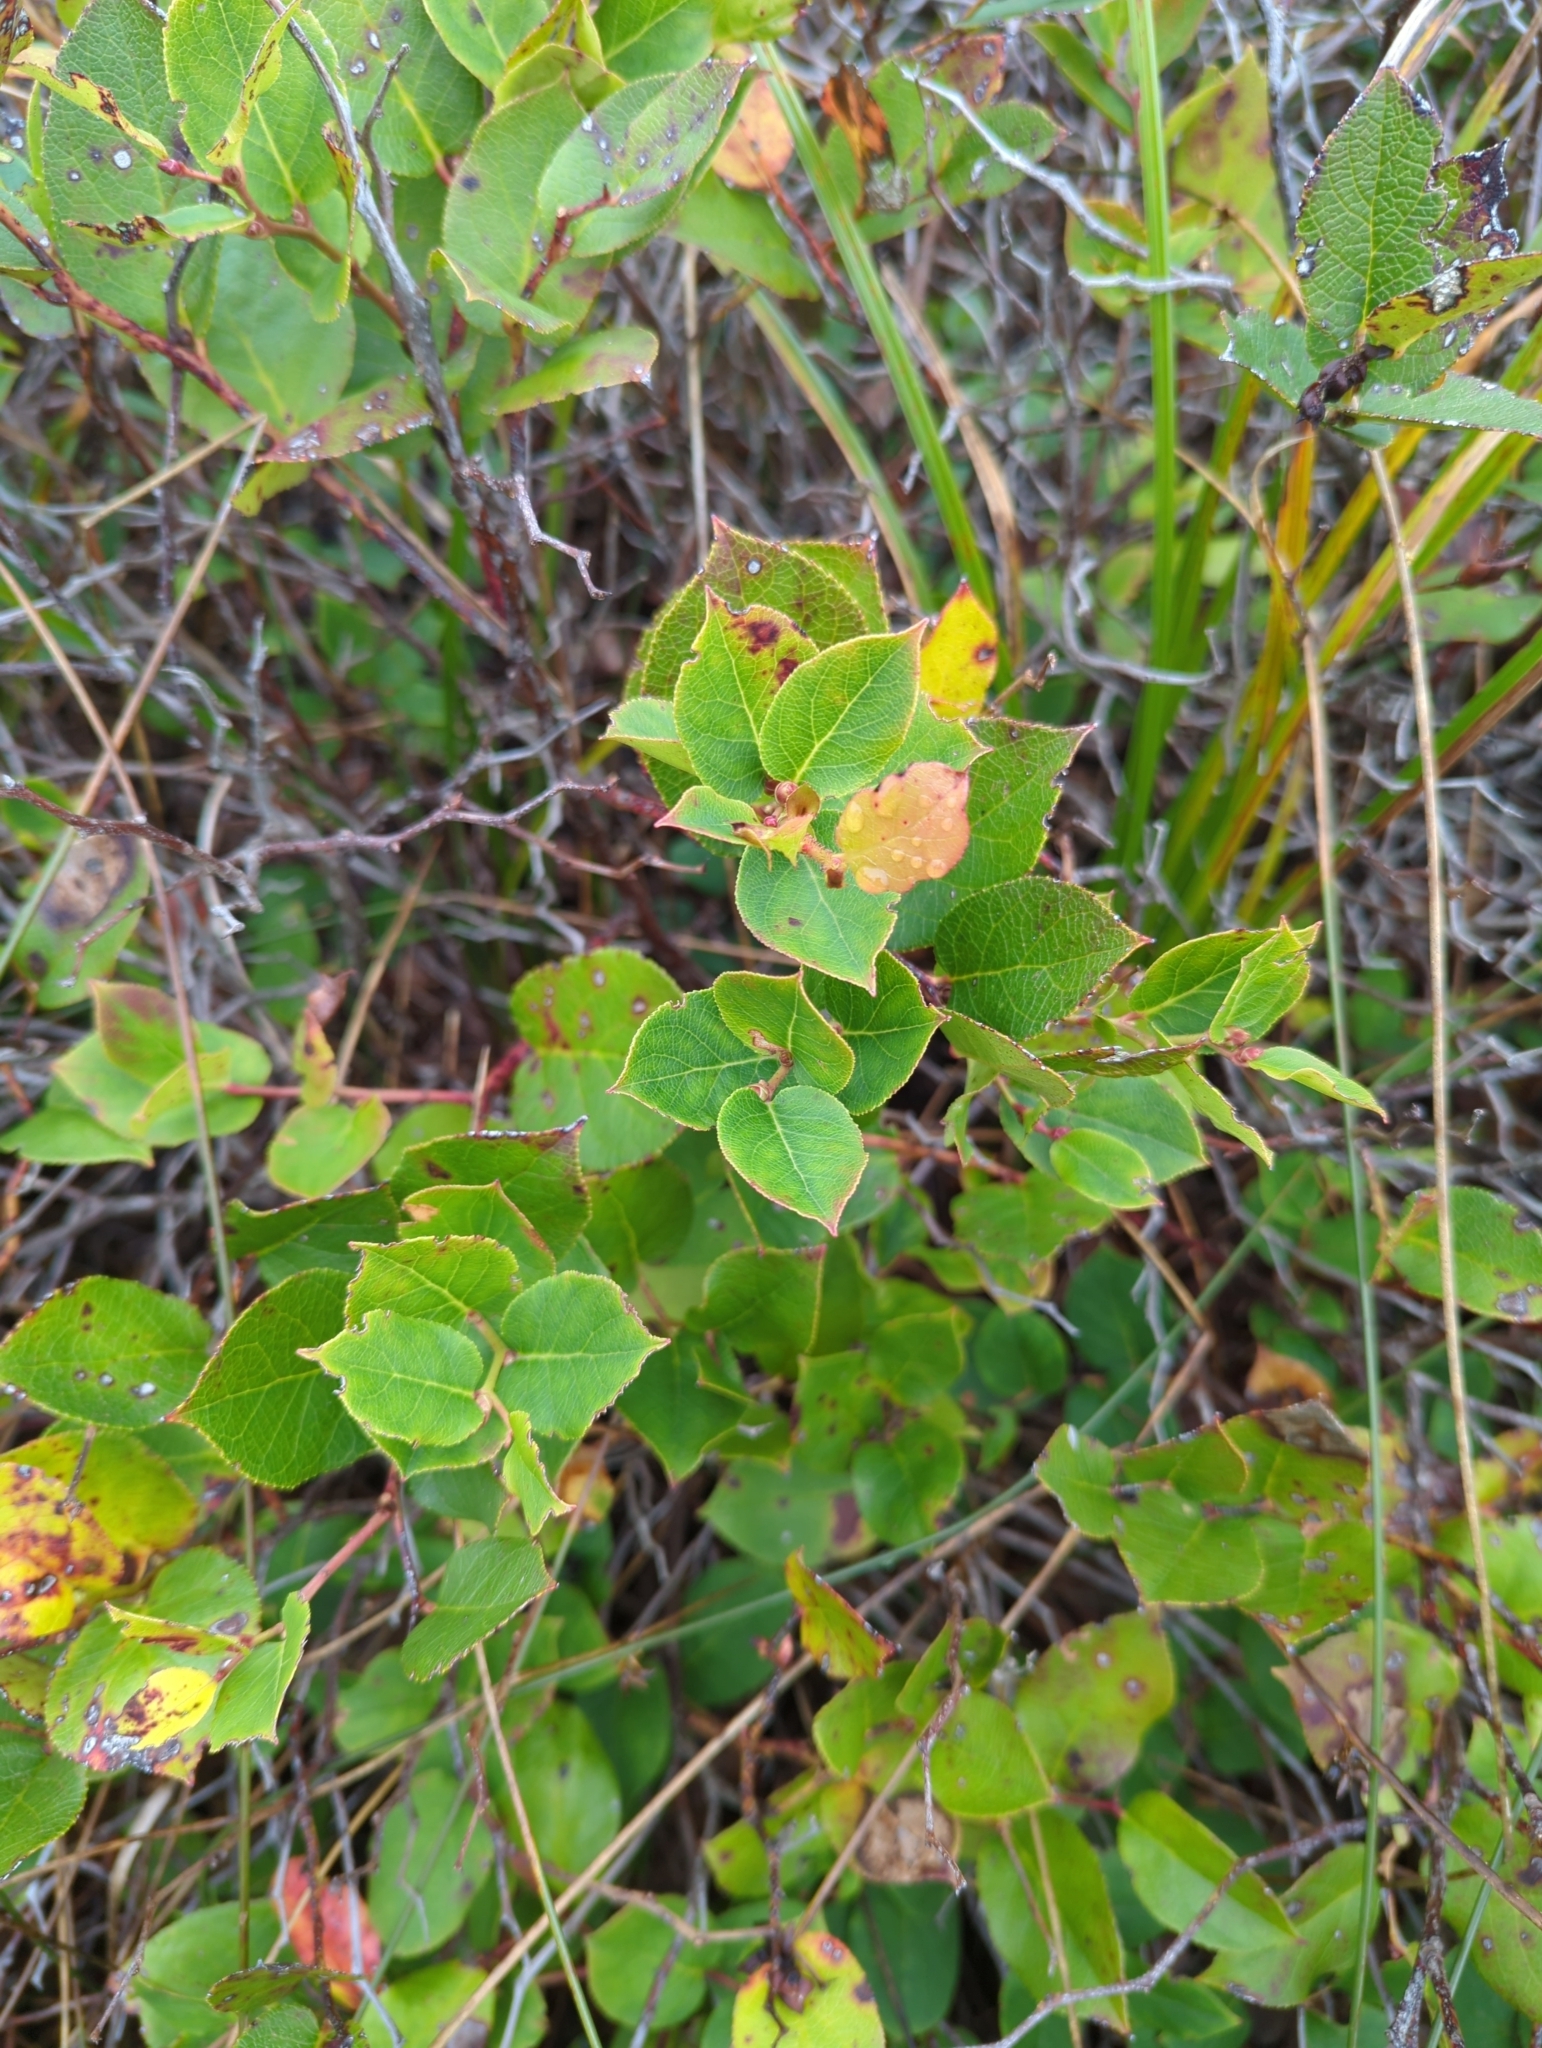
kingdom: Plantae
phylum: Tracheophyta
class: Magnoliopsida
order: Ericales
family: Ericaceae
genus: Gaultheria
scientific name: Gaultheria shallon
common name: Shallon
